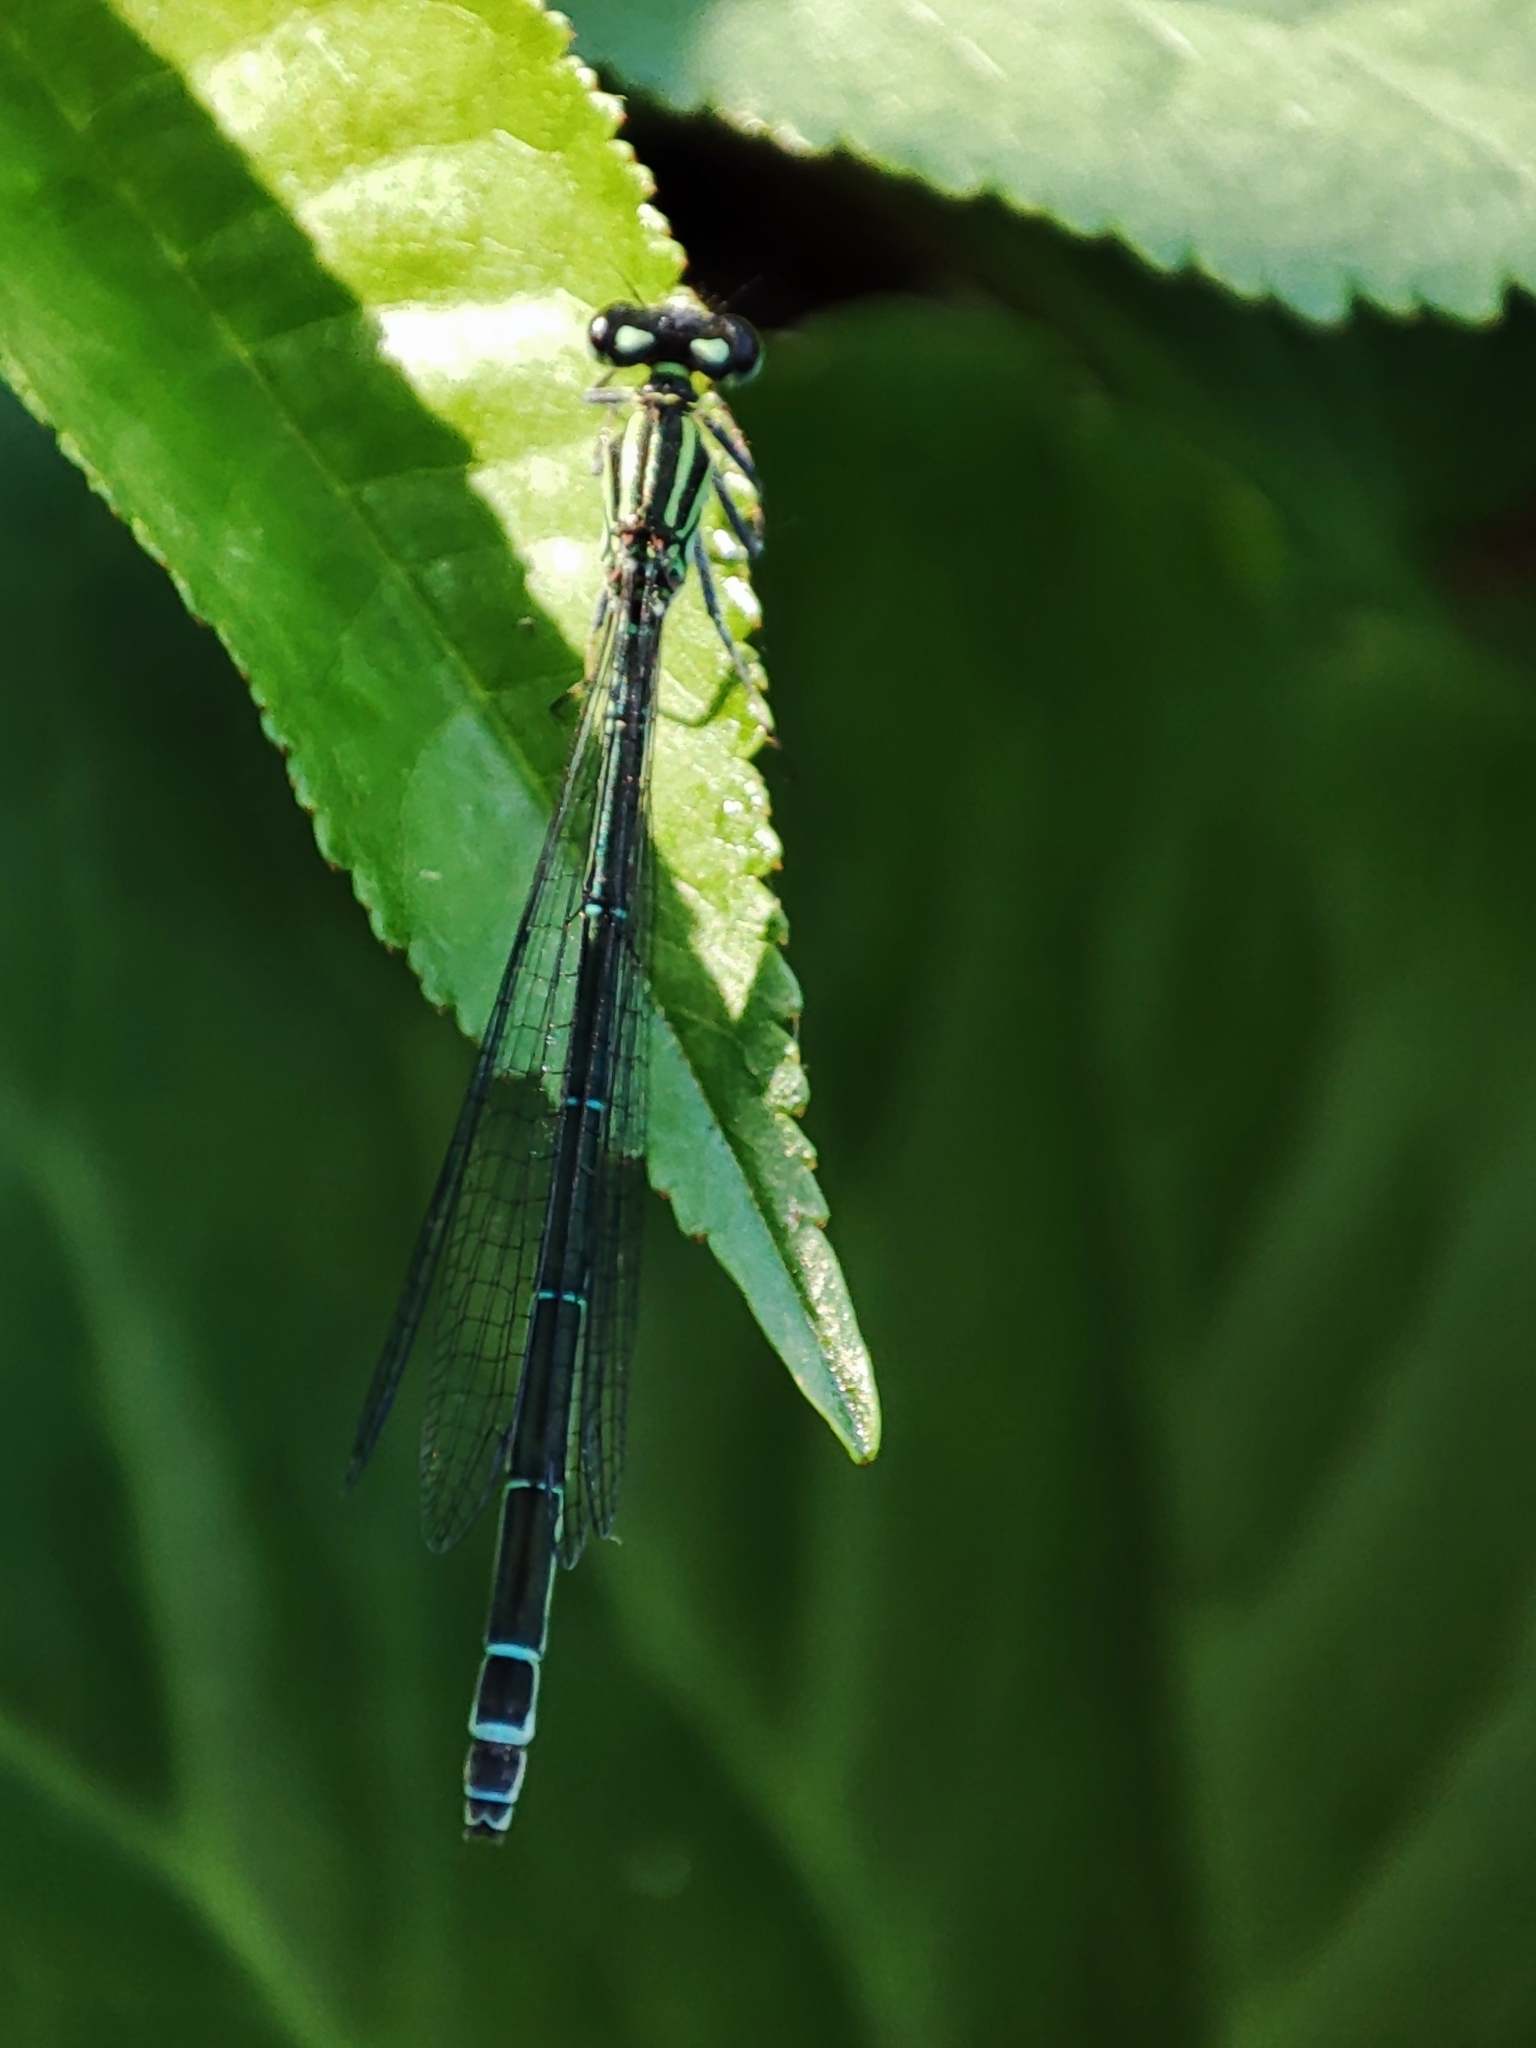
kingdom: Animalia
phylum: Arthropoda
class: Insecta
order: Odonata
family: Coenagrionidae
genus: Coenagrion
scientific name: Coenagrion puella
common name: Azure damselfly
